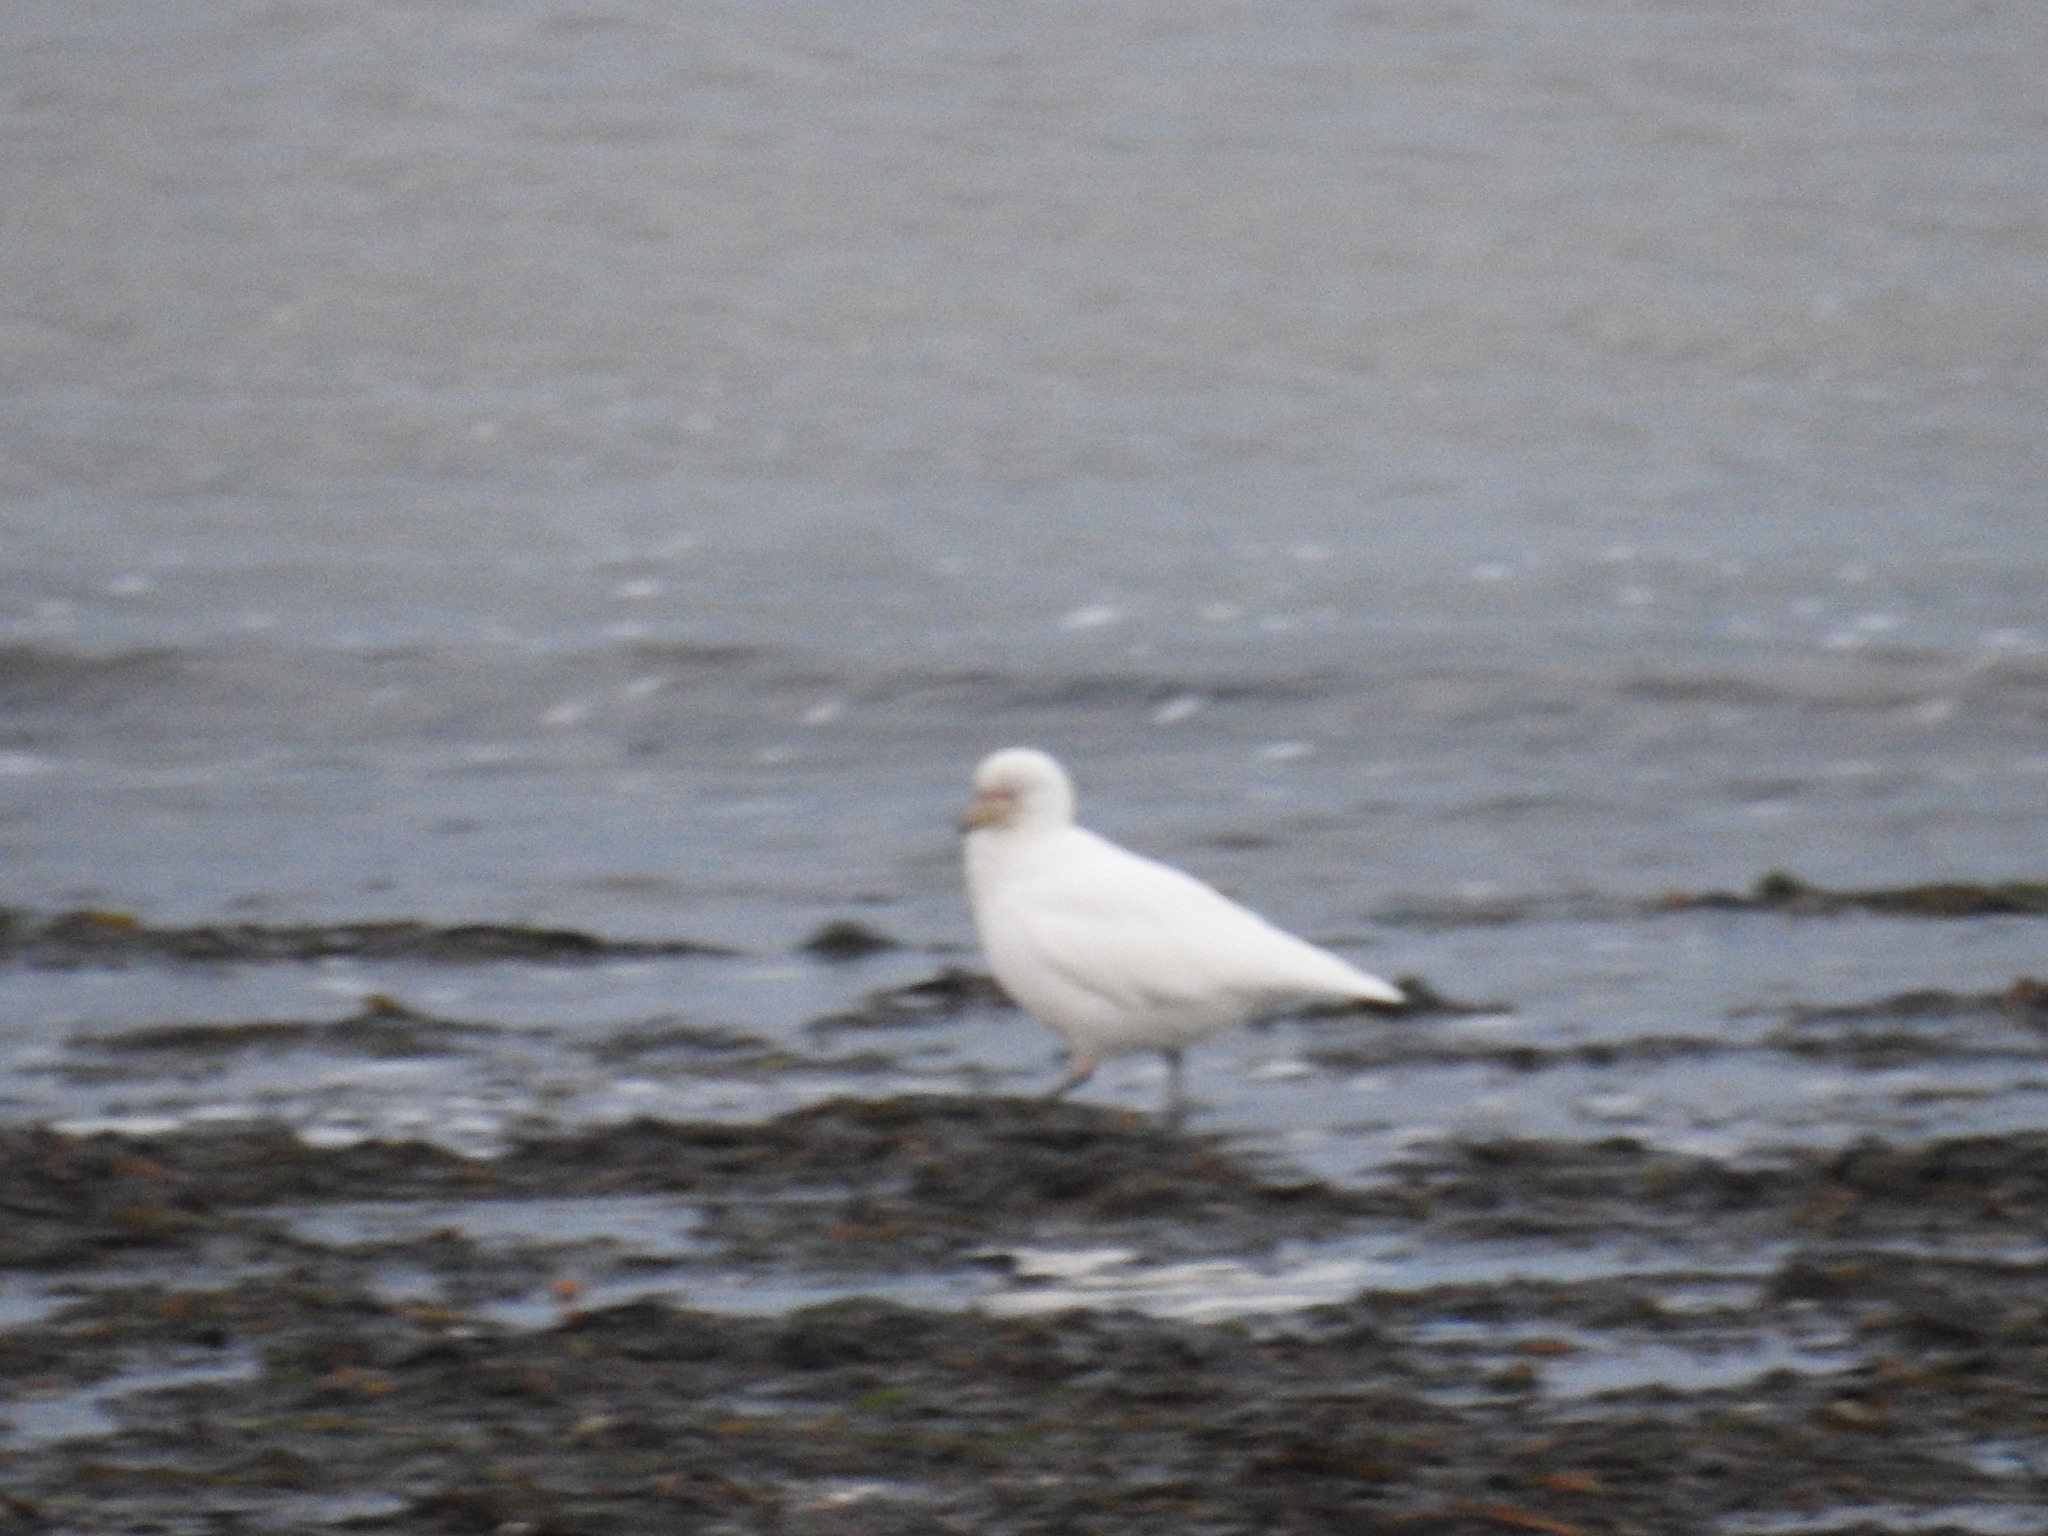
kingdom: Animalia
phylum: Chordata
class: Aves
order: Charadriiformes
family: Chionidae
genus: Chionis
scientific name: Chionis albus
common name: Snowy sheathbill
